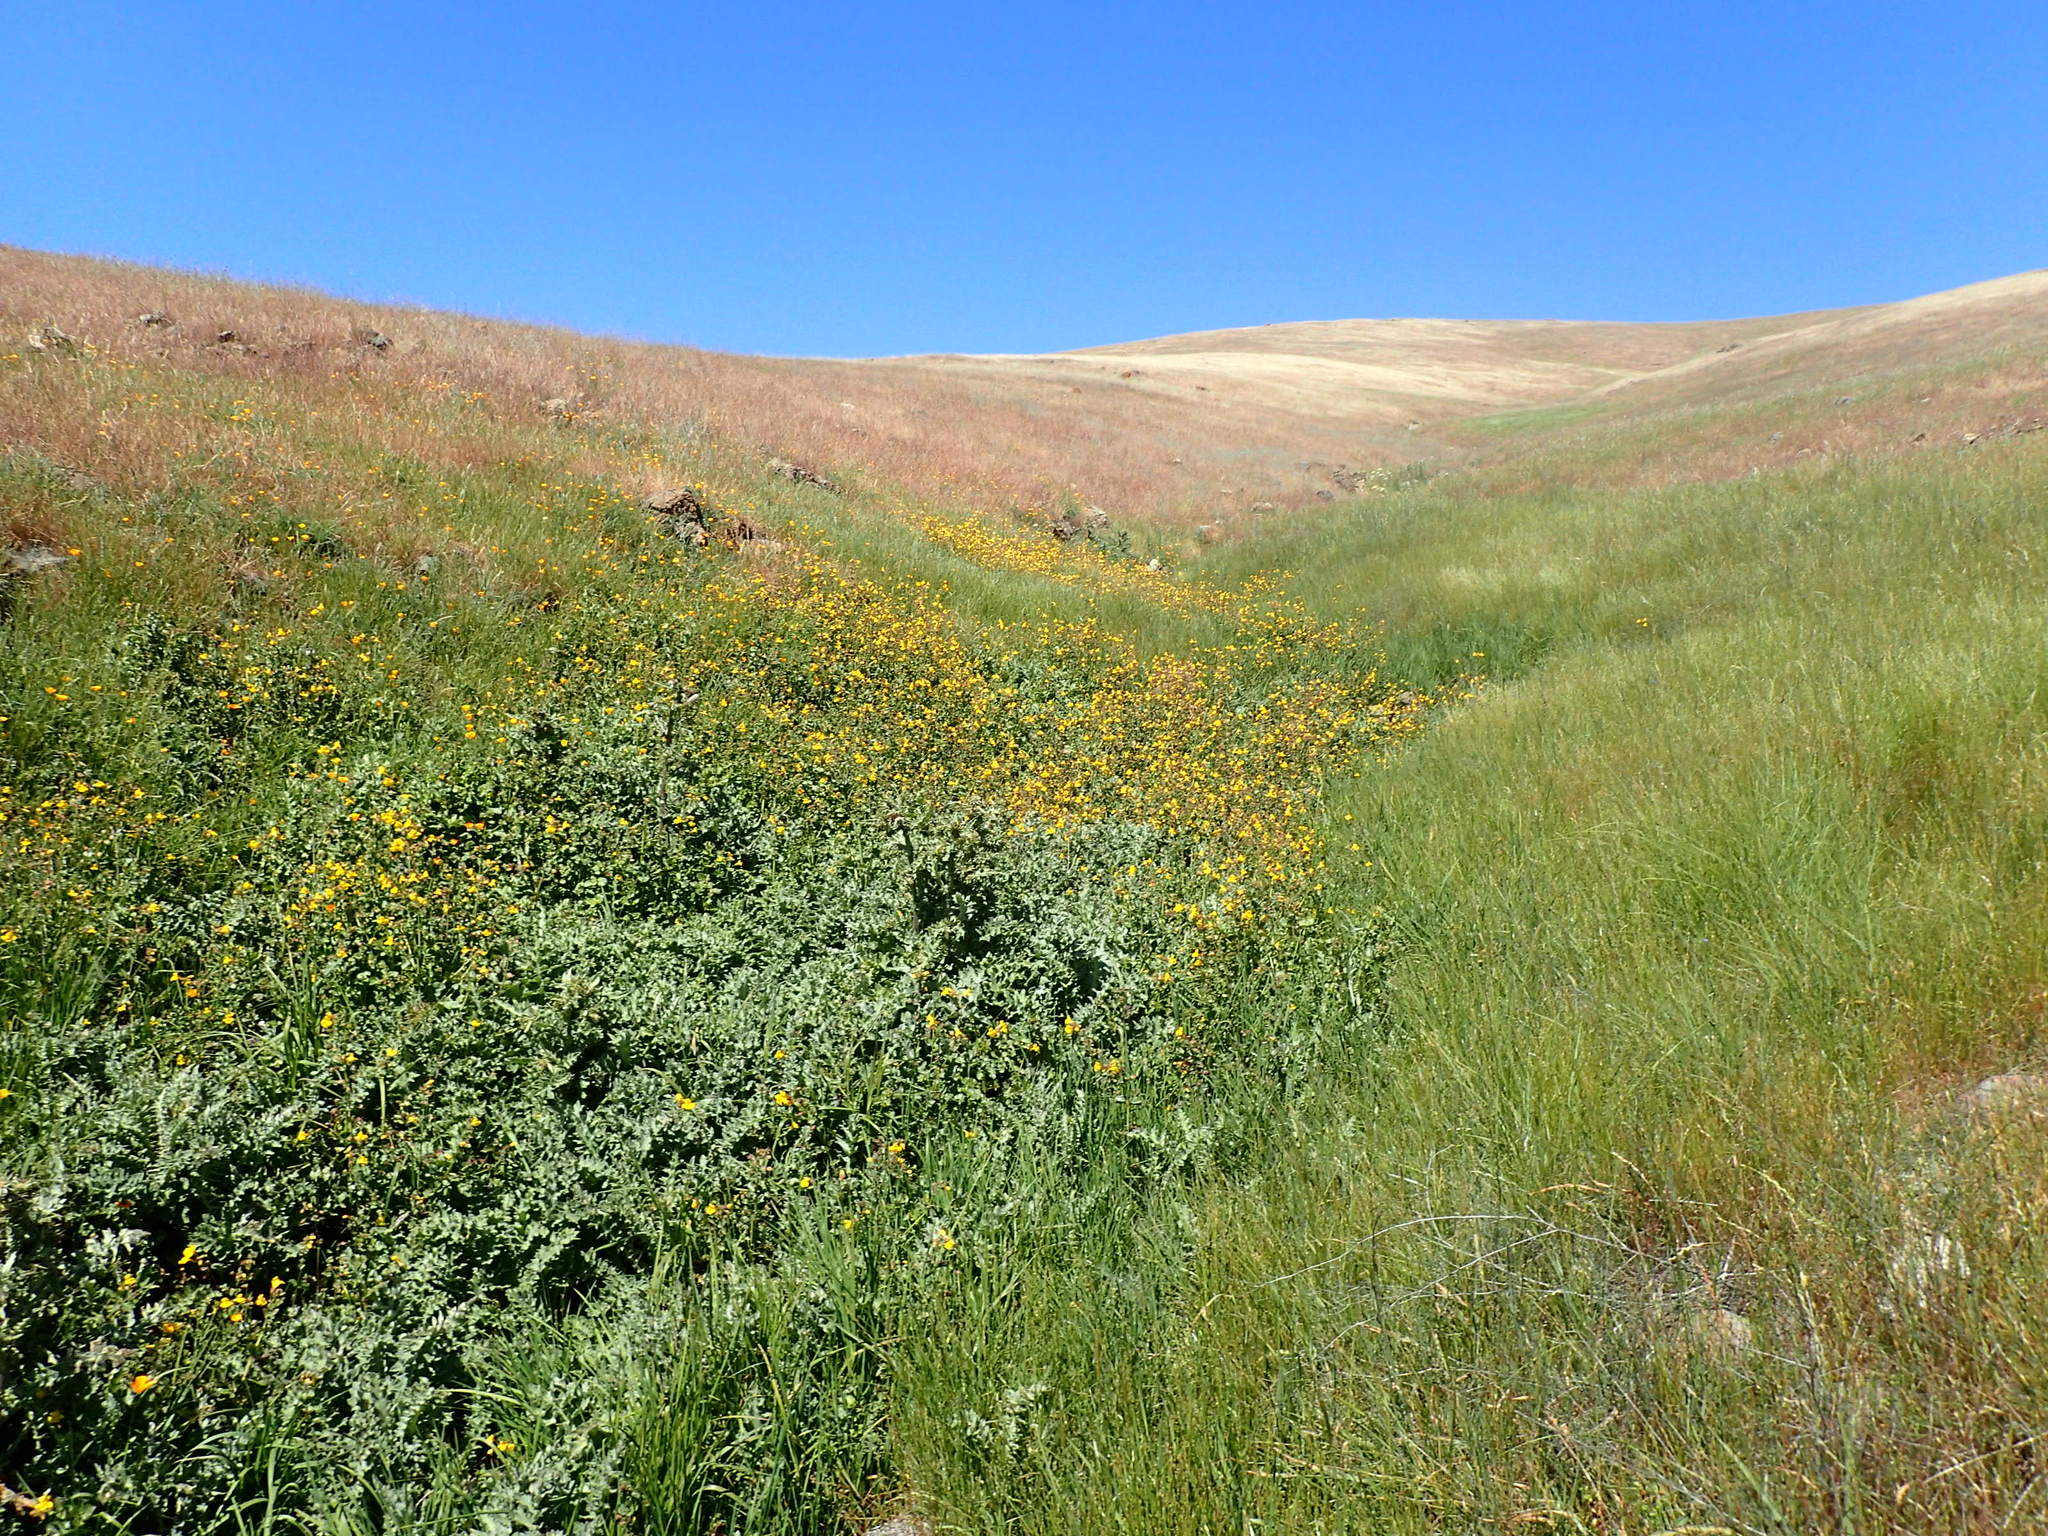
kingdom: Plantae
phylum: Tracheophyta
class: Magnoliopsida
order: Asterales
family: Asteraceae
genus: Cirsium
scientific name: Cirsium fontinale
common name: Fountain thistle
